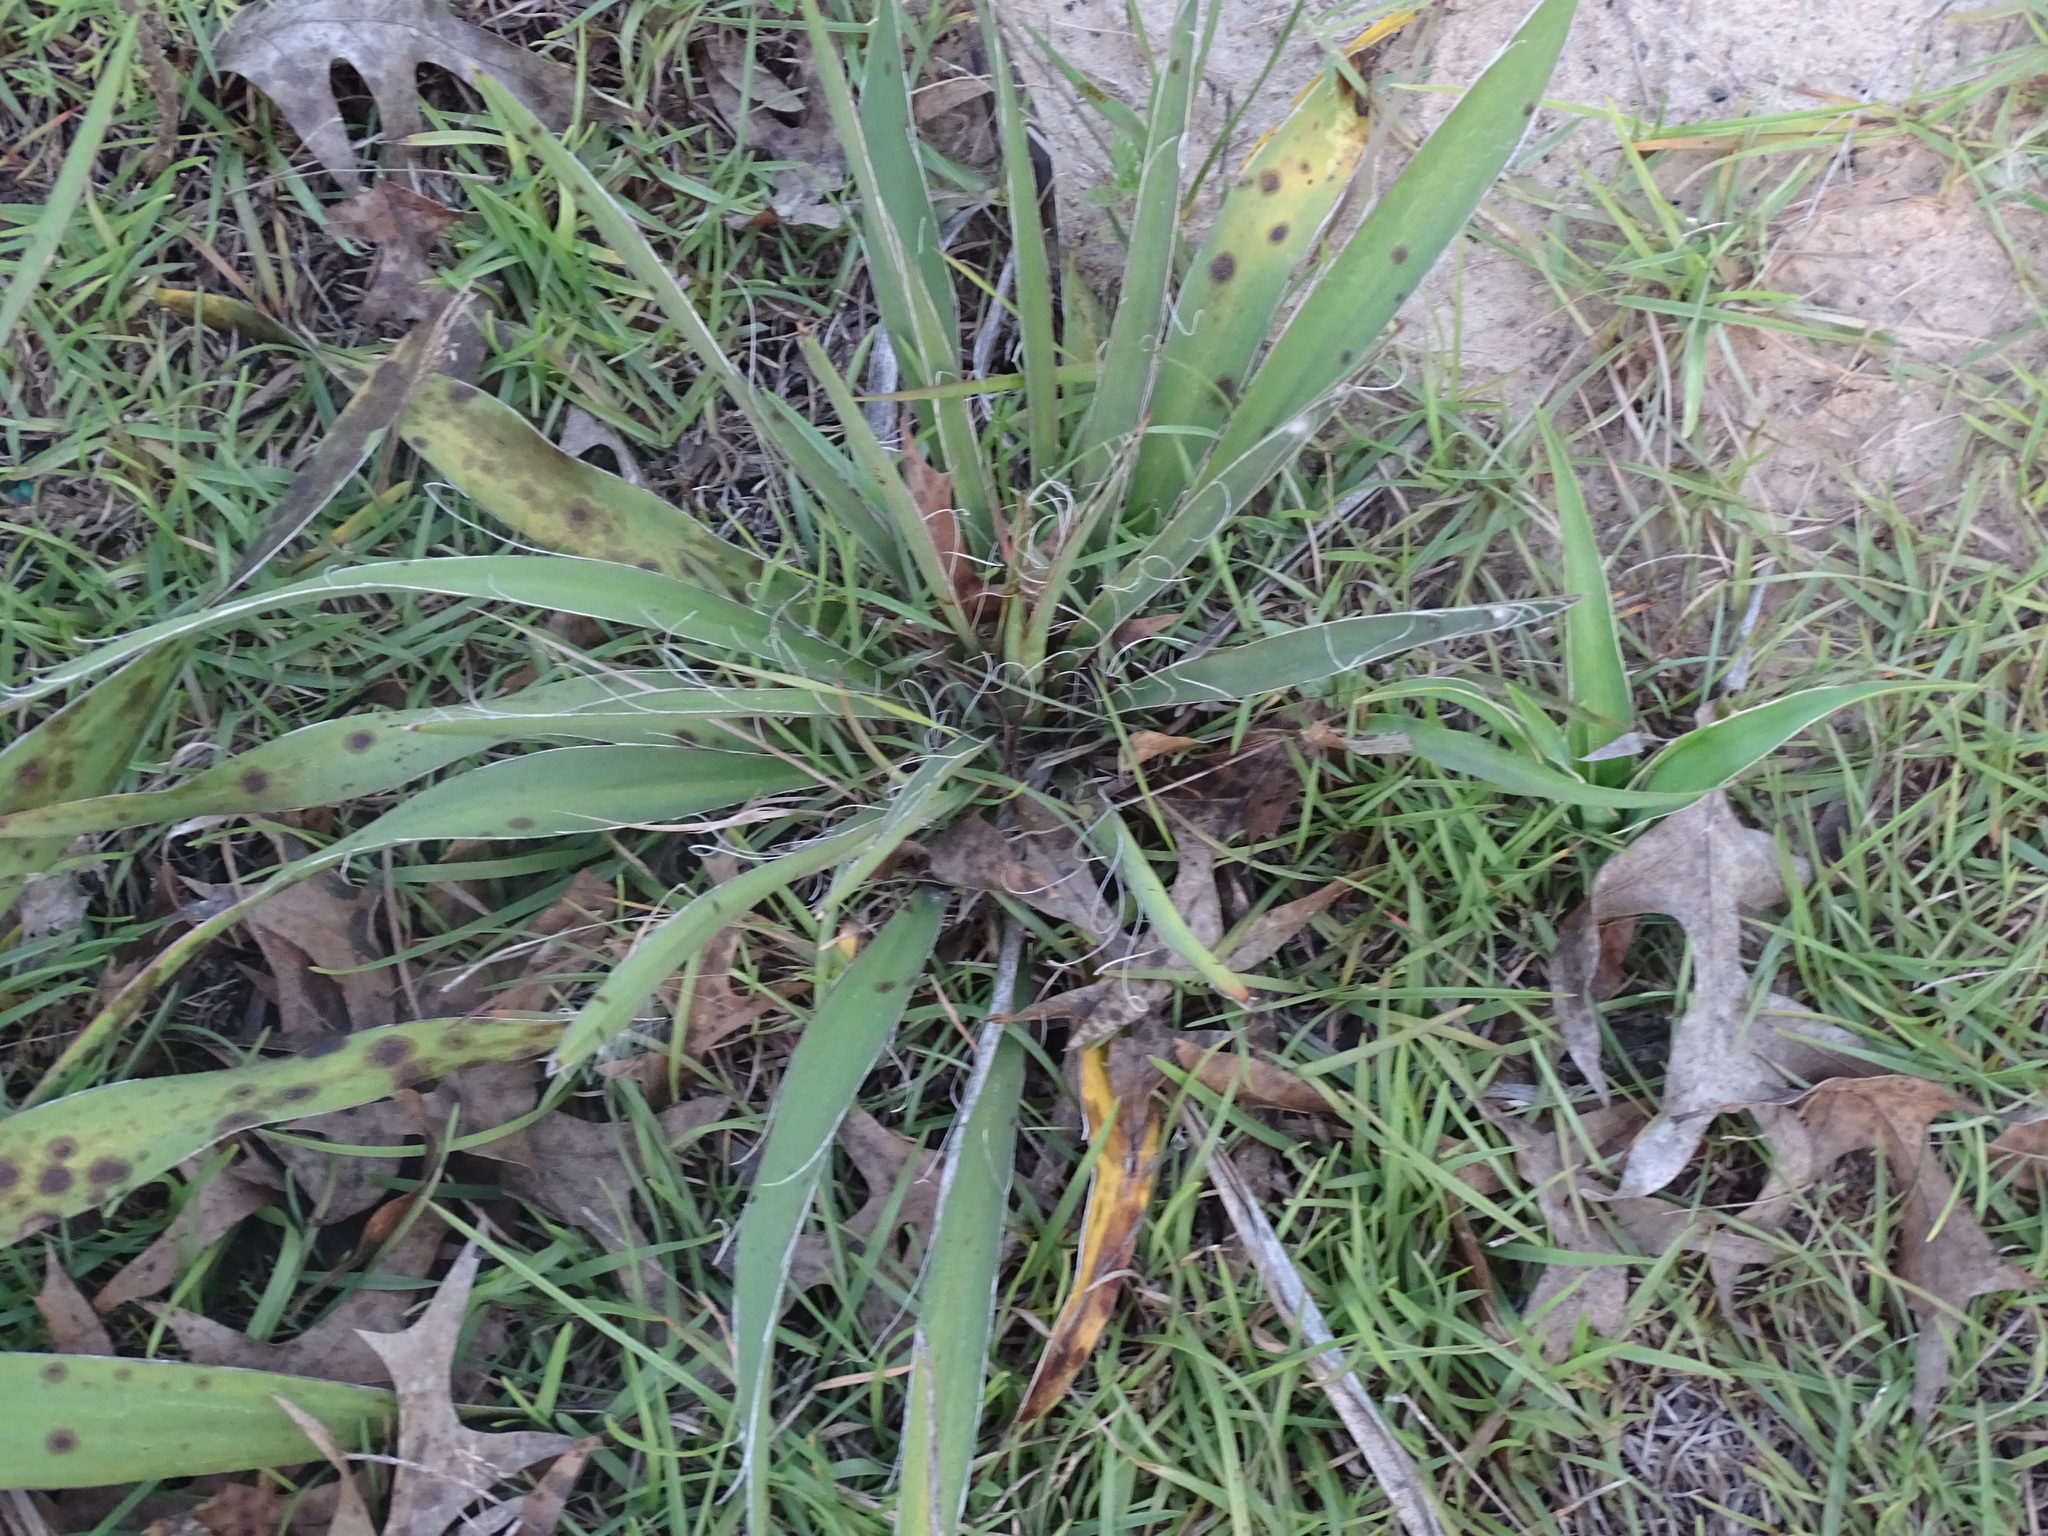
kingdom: Plantae
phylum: Tracheophyta
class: Liliopsida
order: Asparagales
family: Asparagaceae
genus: Yucca
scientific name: Yucca filamentosa
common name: Adam's-needle
